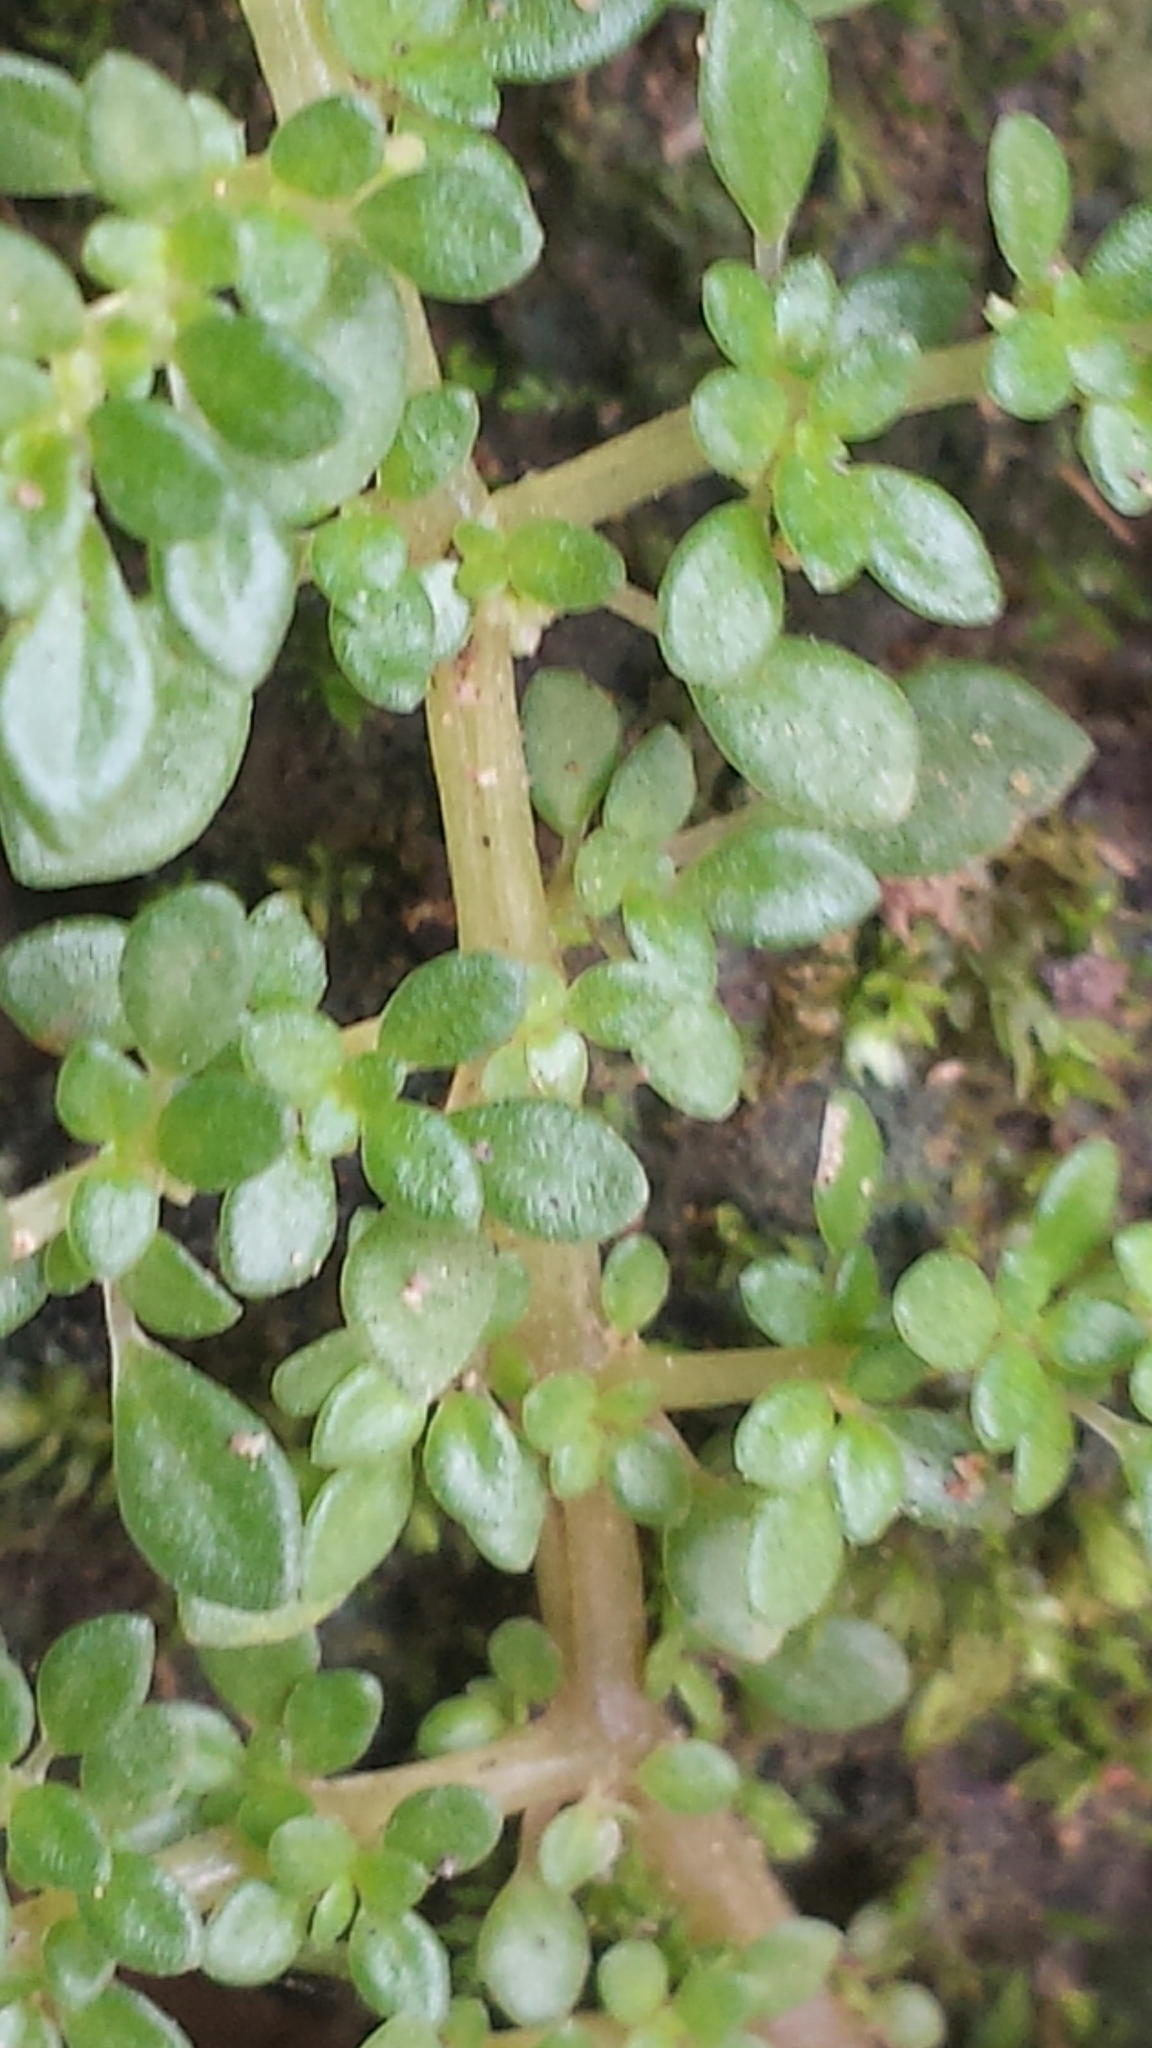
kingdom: Plantae
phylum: Tracheophyta
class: Magnoliopsida
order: Rosales
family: Urticaceae
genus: Pilea
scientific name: Pilea microphylla
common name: Artillery-plant
